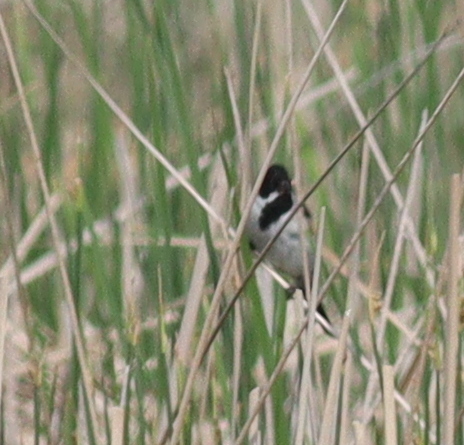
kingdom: Animalia
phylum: Chordata
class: Aves
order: Passeriformes
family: Emberizidae
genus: Emberiza
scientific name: Emberiza schoeniclus
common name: Reed bunting
